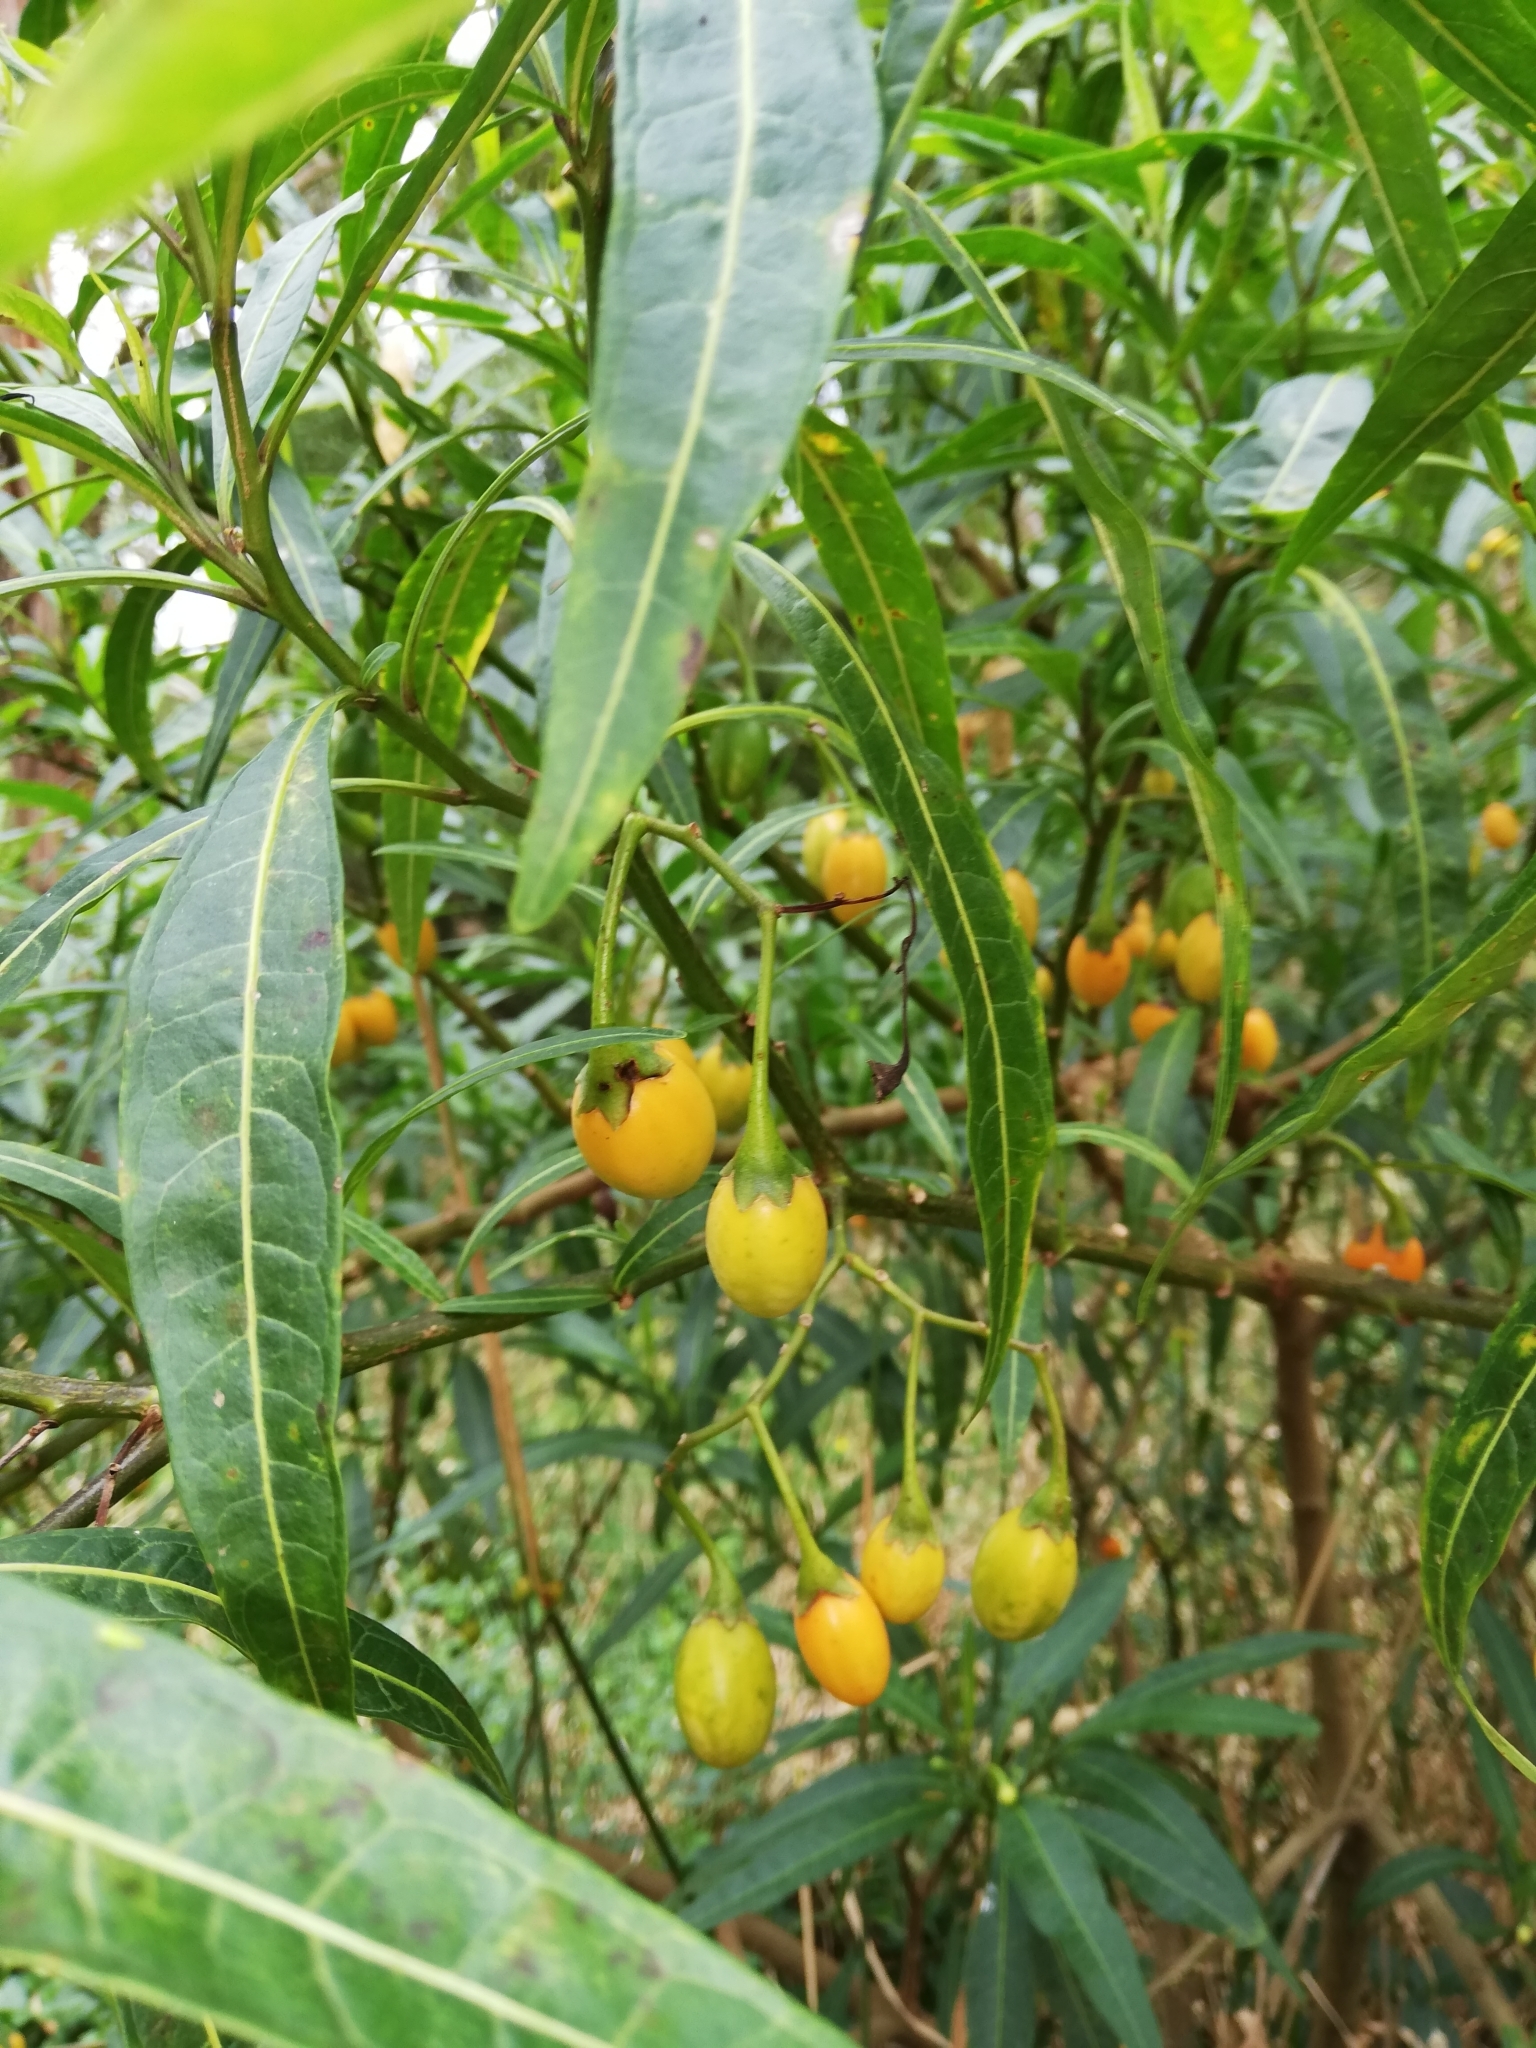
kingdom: Plantae
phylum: Tracheophyta
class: Magnoliopsida
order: Solanales
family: Solanaceae
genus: Solanum
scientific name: Solanum laciniatum
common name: Kangaroo-apple
